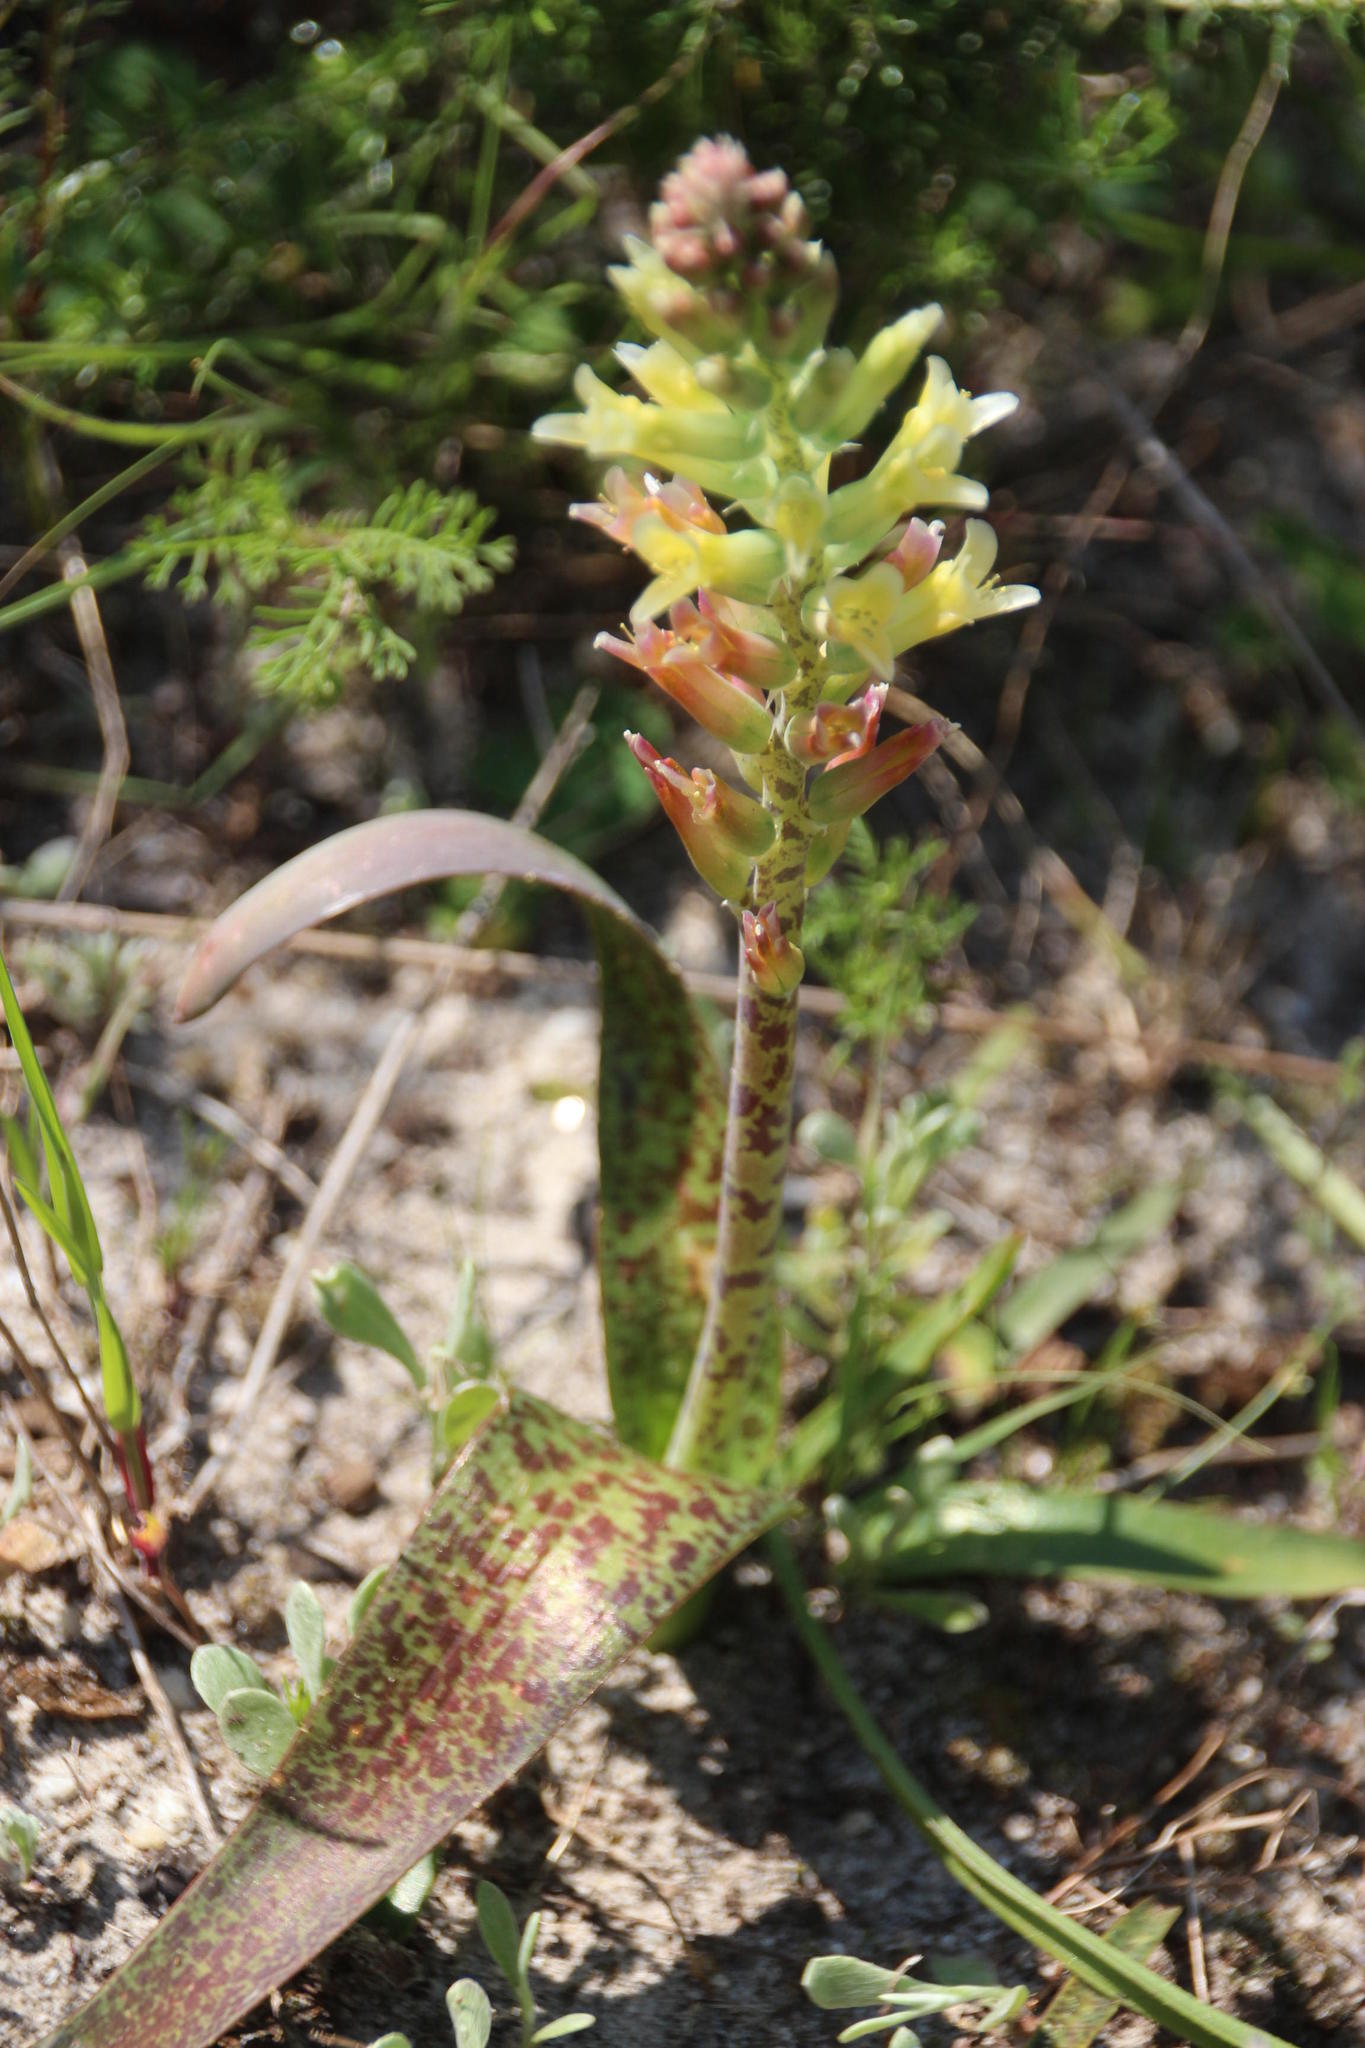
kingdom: Plantae
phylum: Tracheophyta
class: Liliopsida
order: Asparagales
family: Asparagaceae
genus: Lachenalia
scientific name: Lachenalia orchioides
